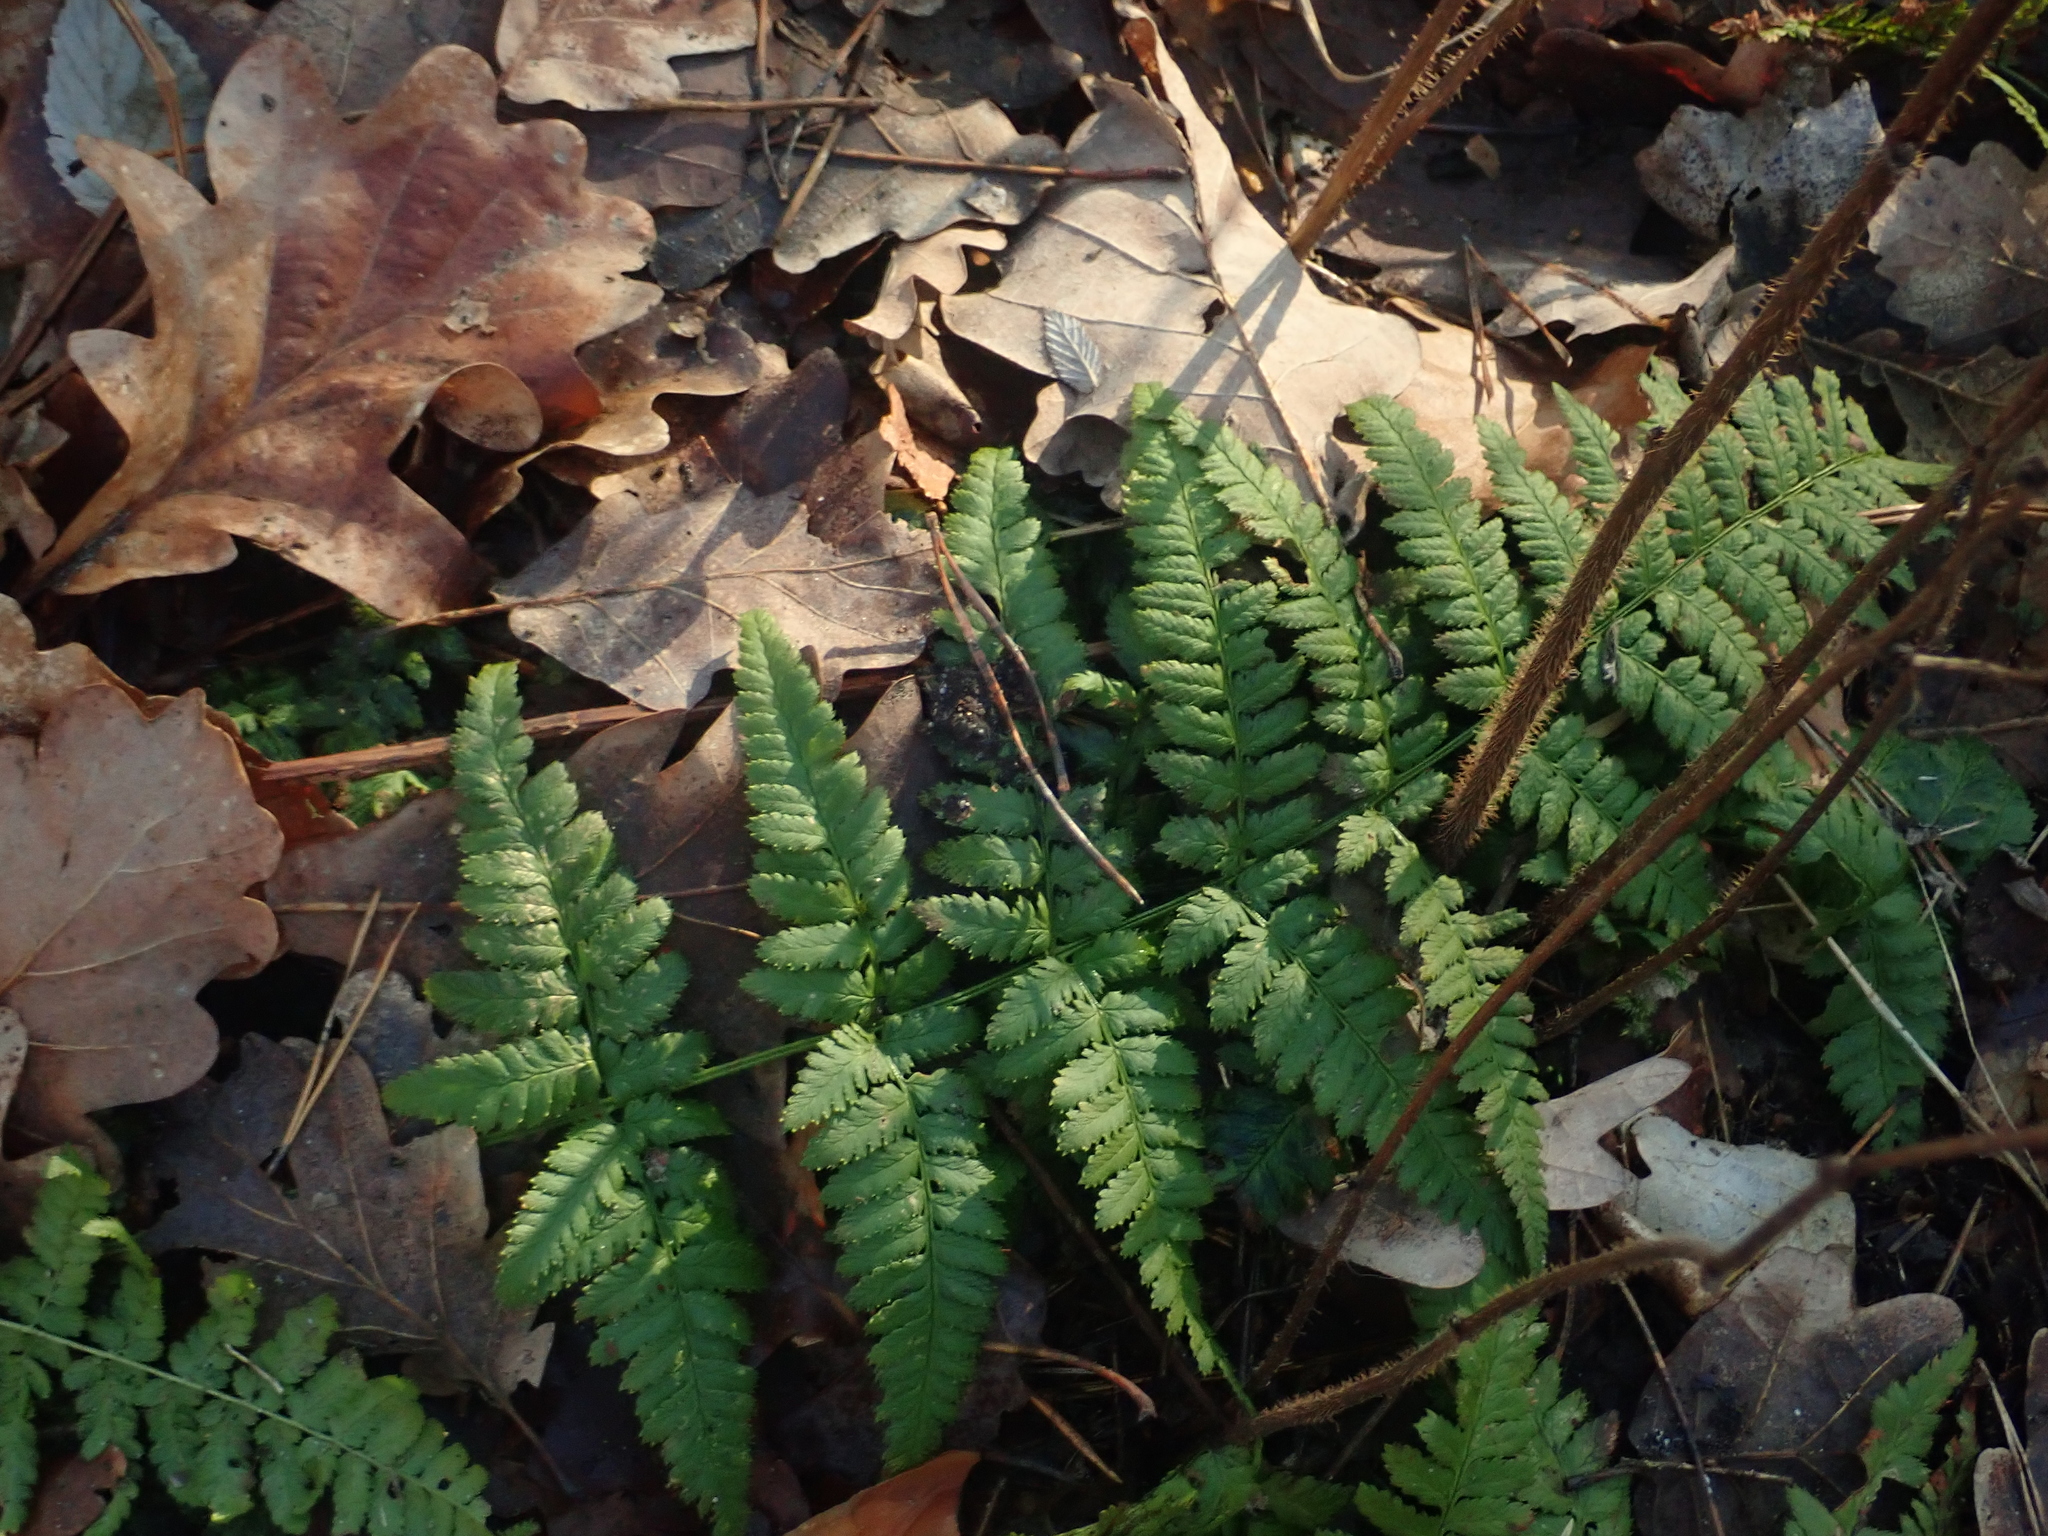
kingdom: Plantae
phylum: Tracheophyta
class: Polypodiopsida
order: Polypodiales
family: Dryopteridaceae
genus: Dryopteris
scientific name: Dryopteris carthusiana
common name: Narrow buckler-fern
